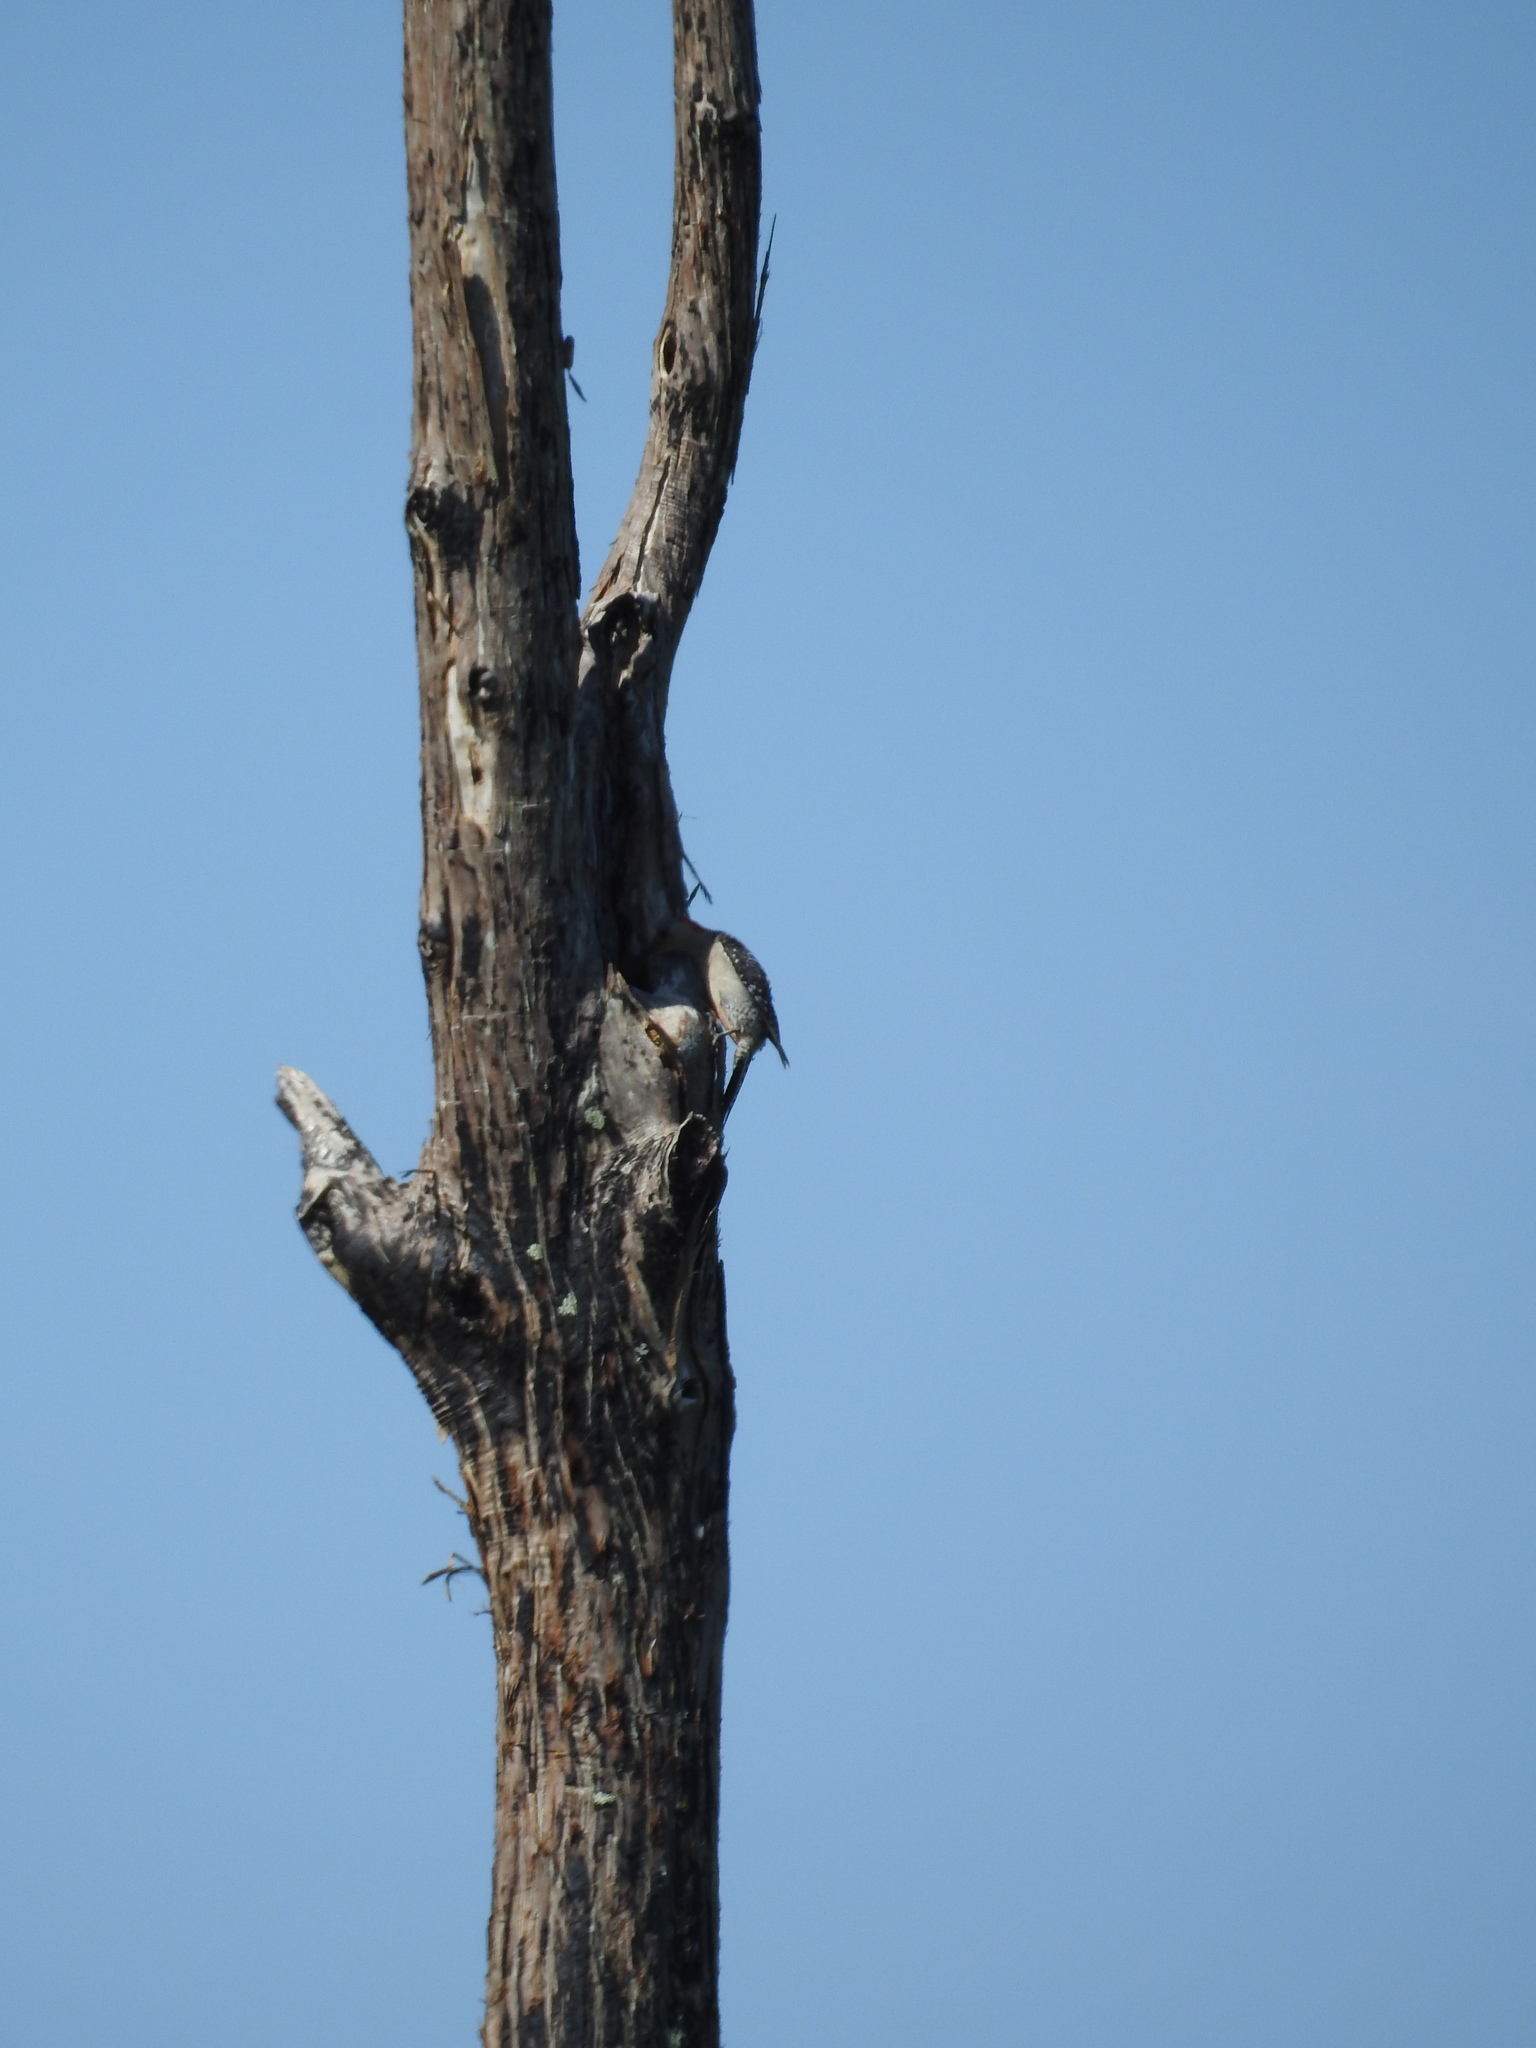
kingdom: Animalia
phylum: Chordata
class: Aves
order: Piciformes
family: Picidae
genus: Melanerpes
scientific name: Melanerpes carolinus
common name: Red-bellied woodpecker
